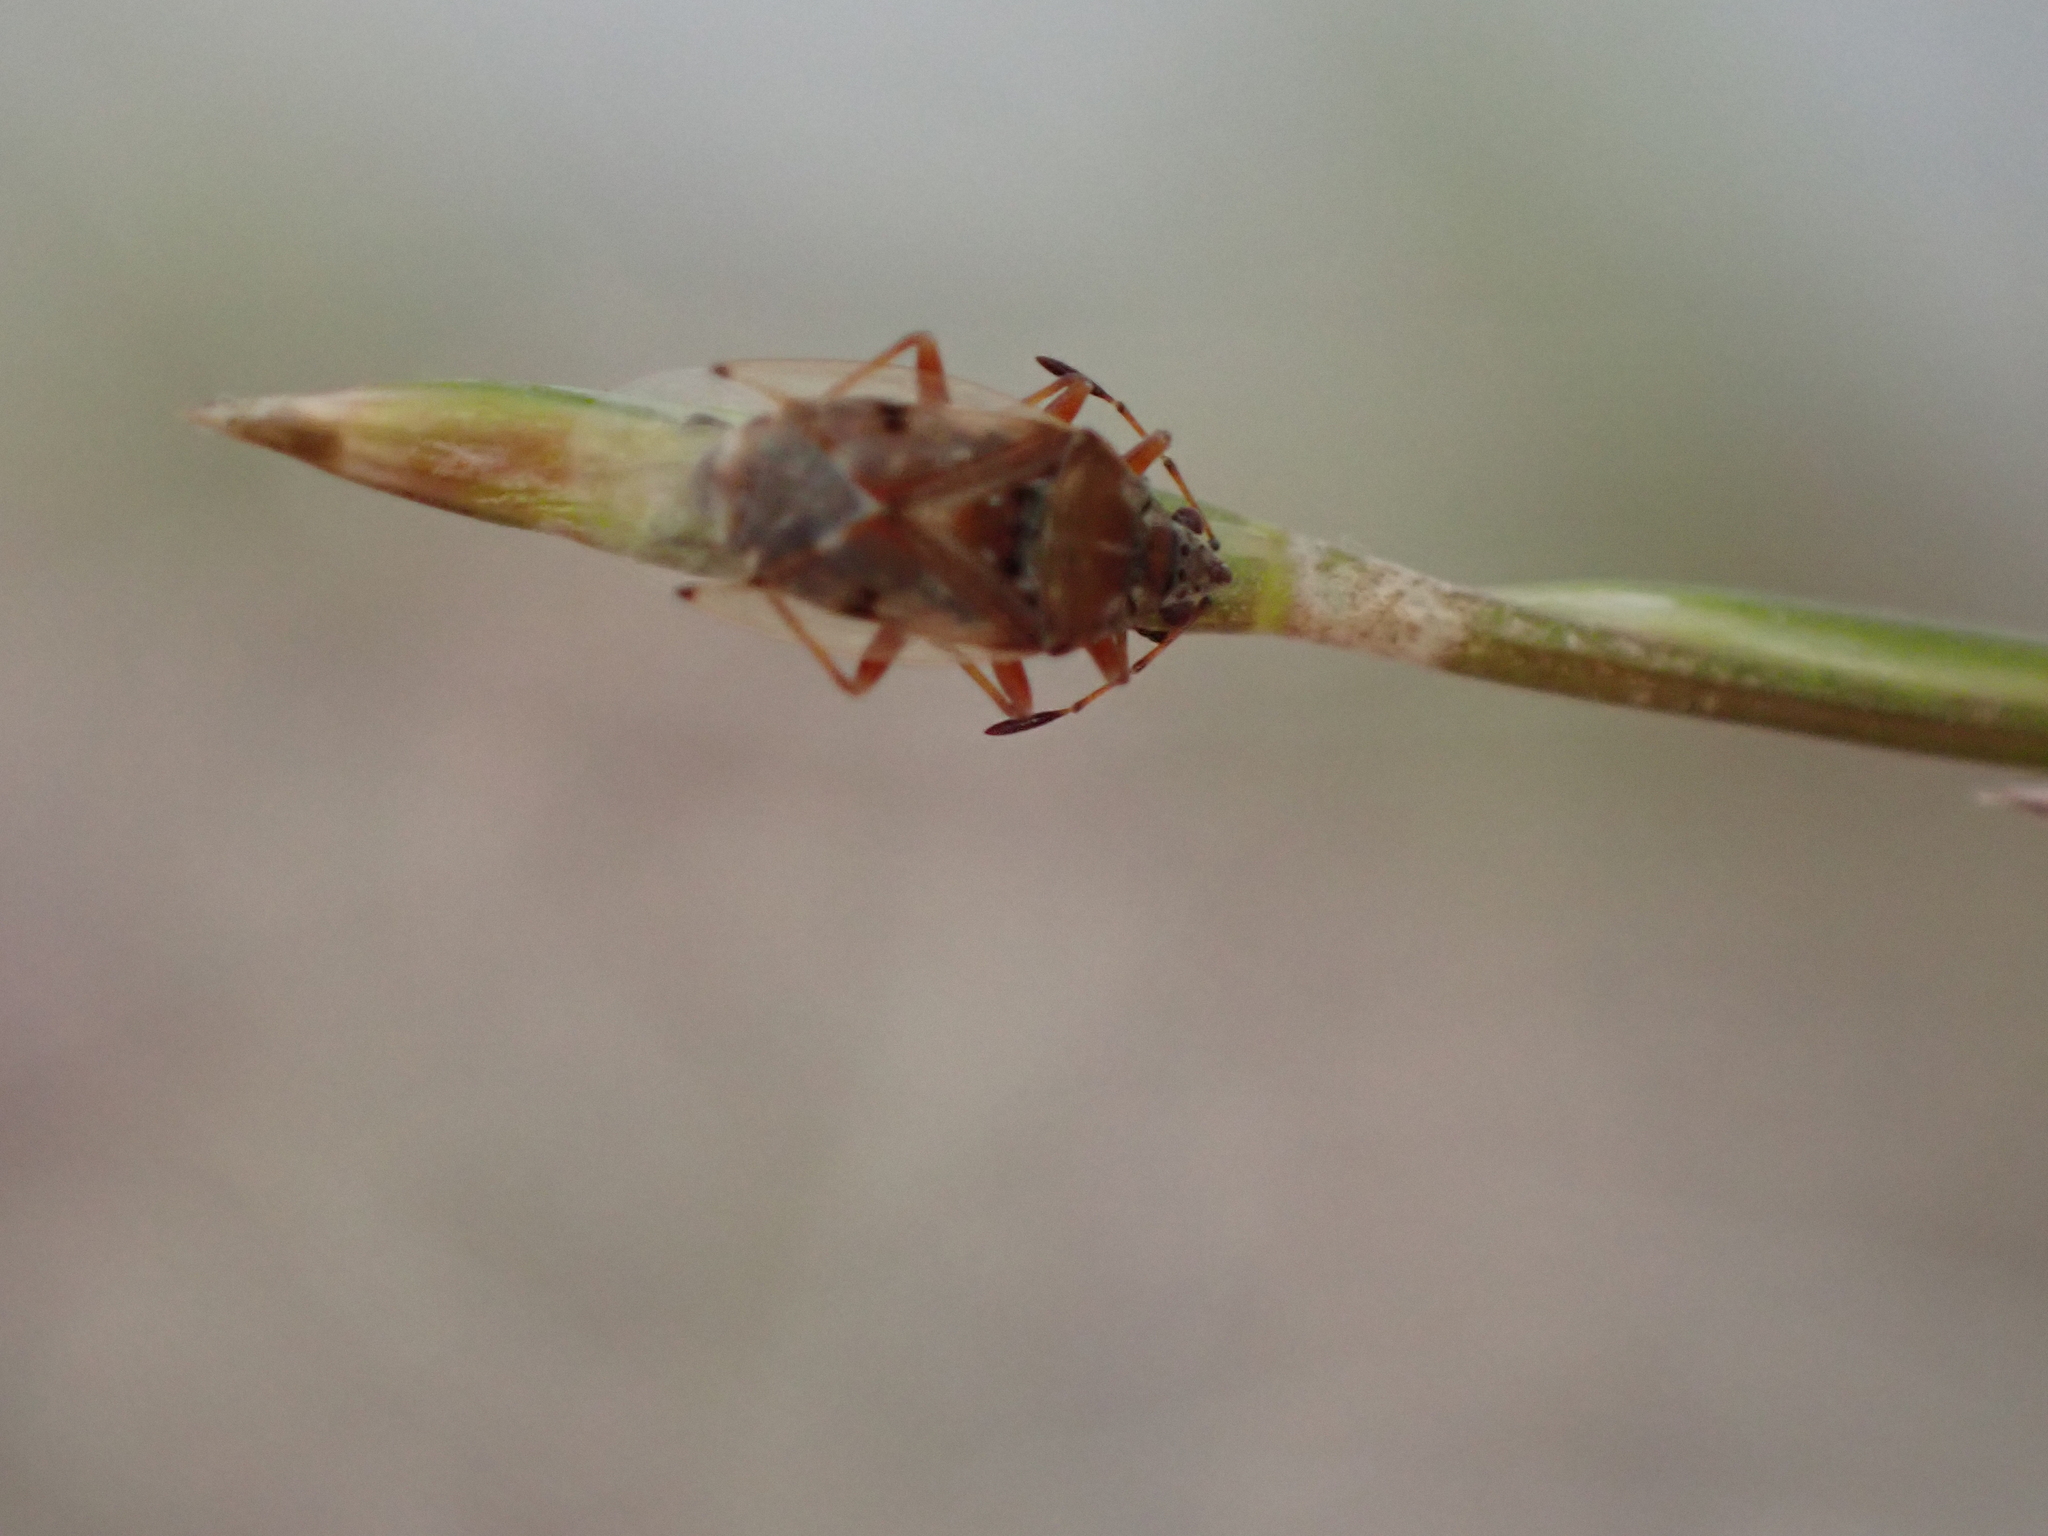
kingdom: Animalia
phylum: Arthropoda
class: Insecta
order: Hemiptera
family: Lygaeidae
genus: Kleidocerys
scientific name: Kleidocerys resedae
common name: Birch catkin bug
